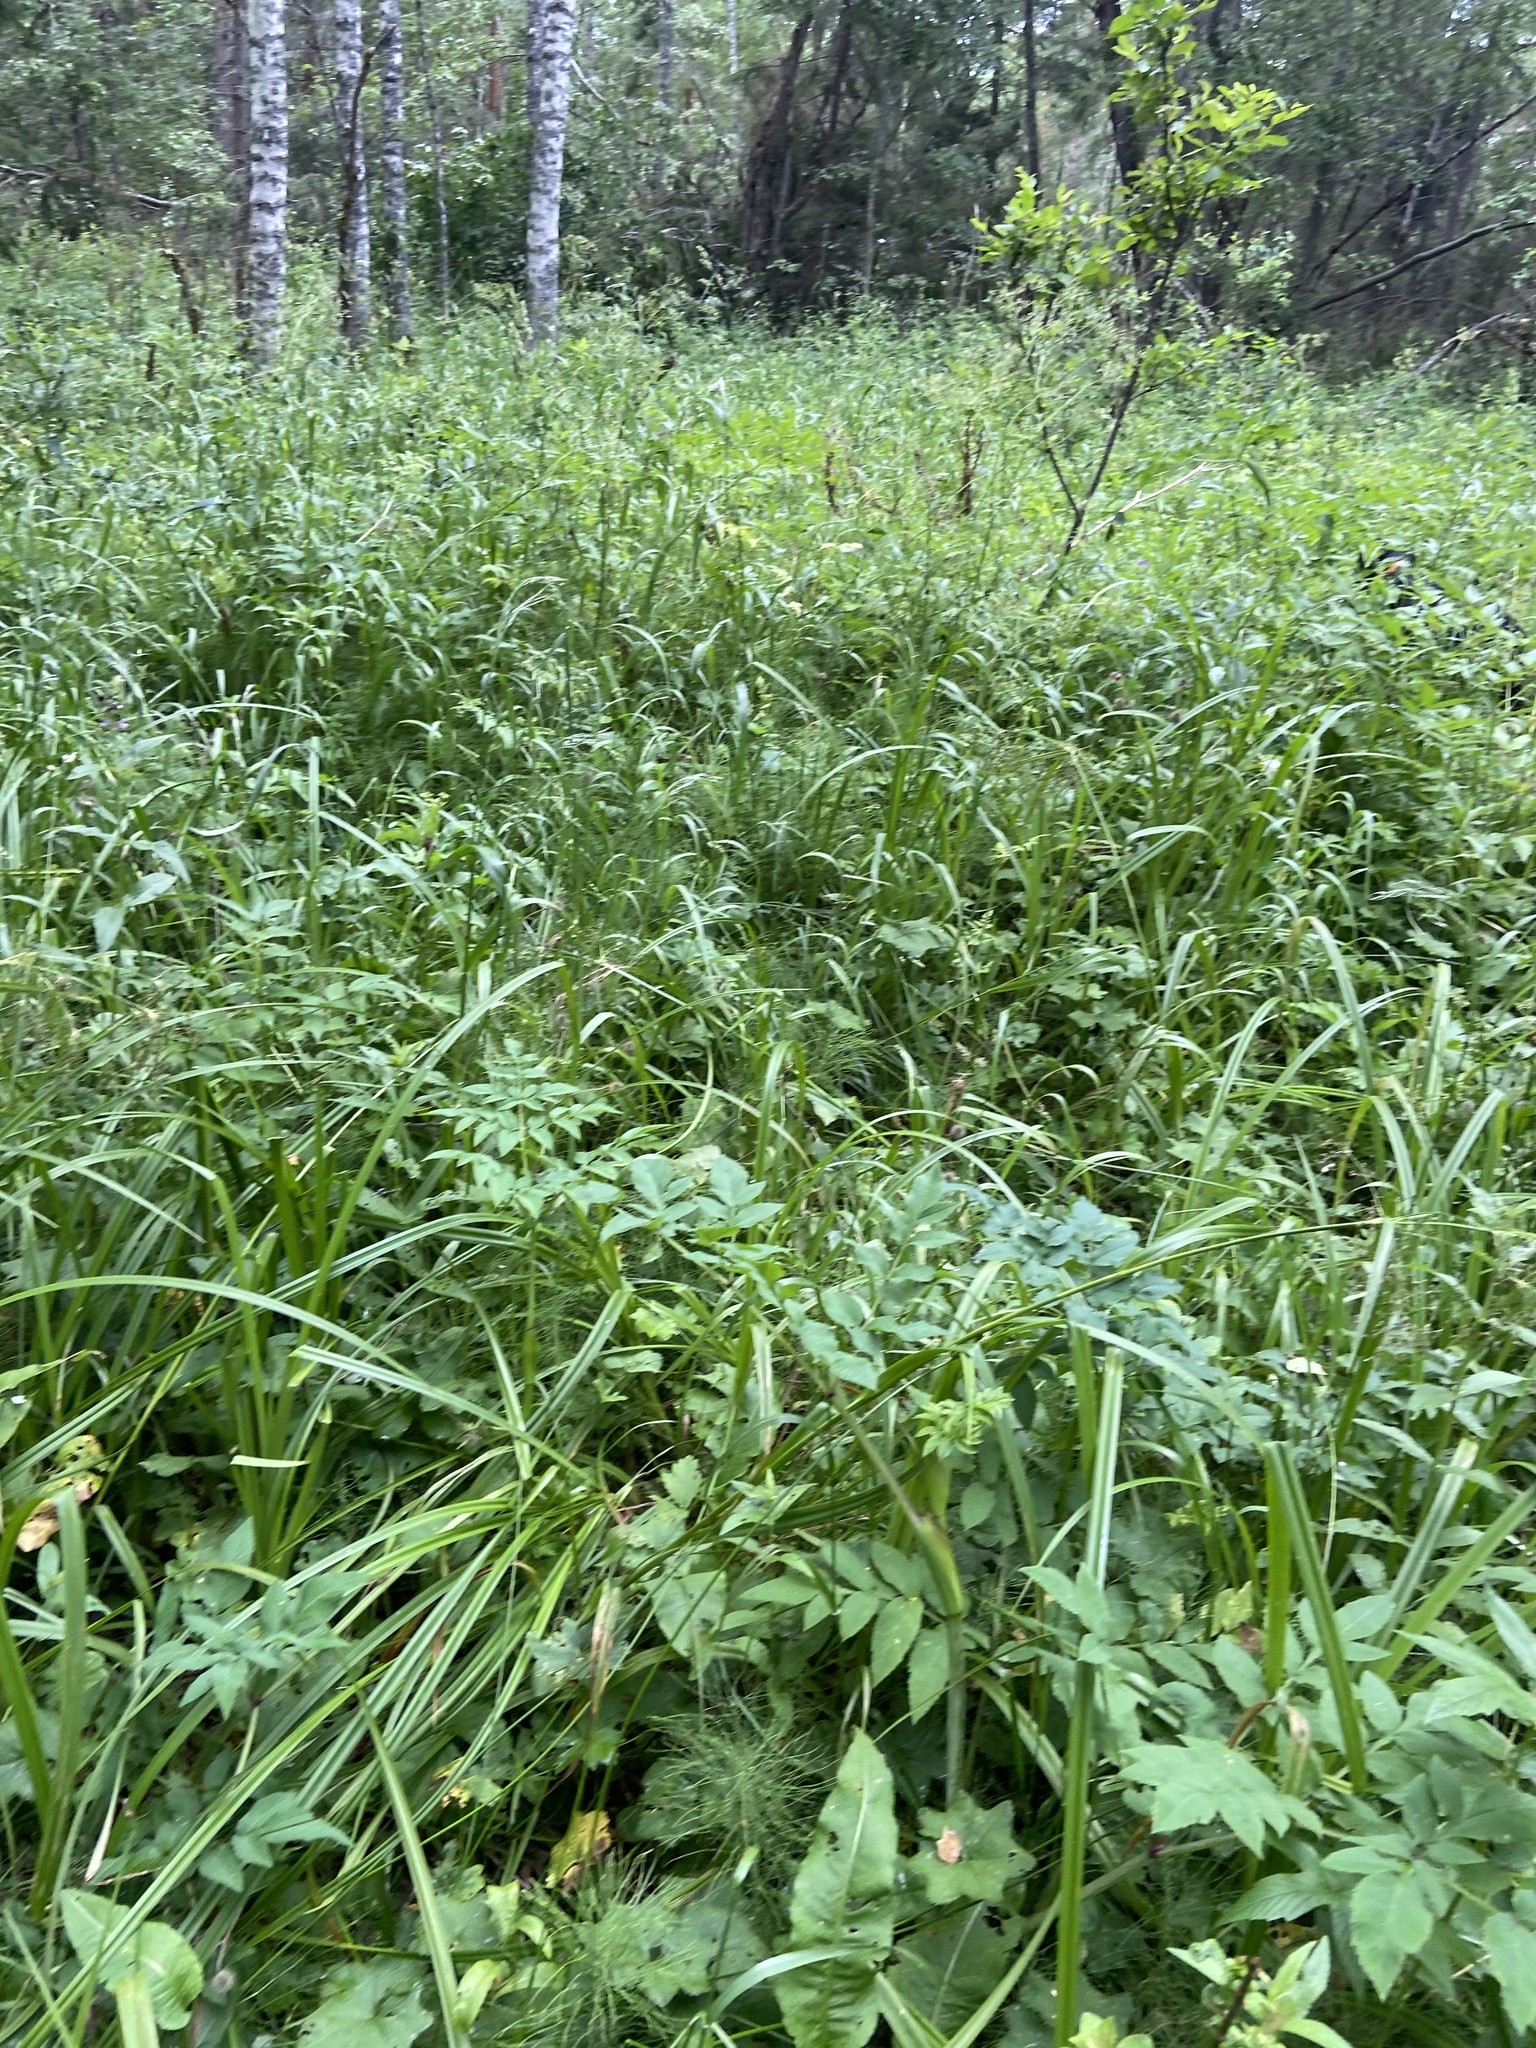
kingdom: Plantae
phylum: Tracheophyta
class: Magnoliopsida
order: Apiales
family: Apiaceae
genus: Angelica
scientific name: Angelica sylvestris
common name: Wild angelica
